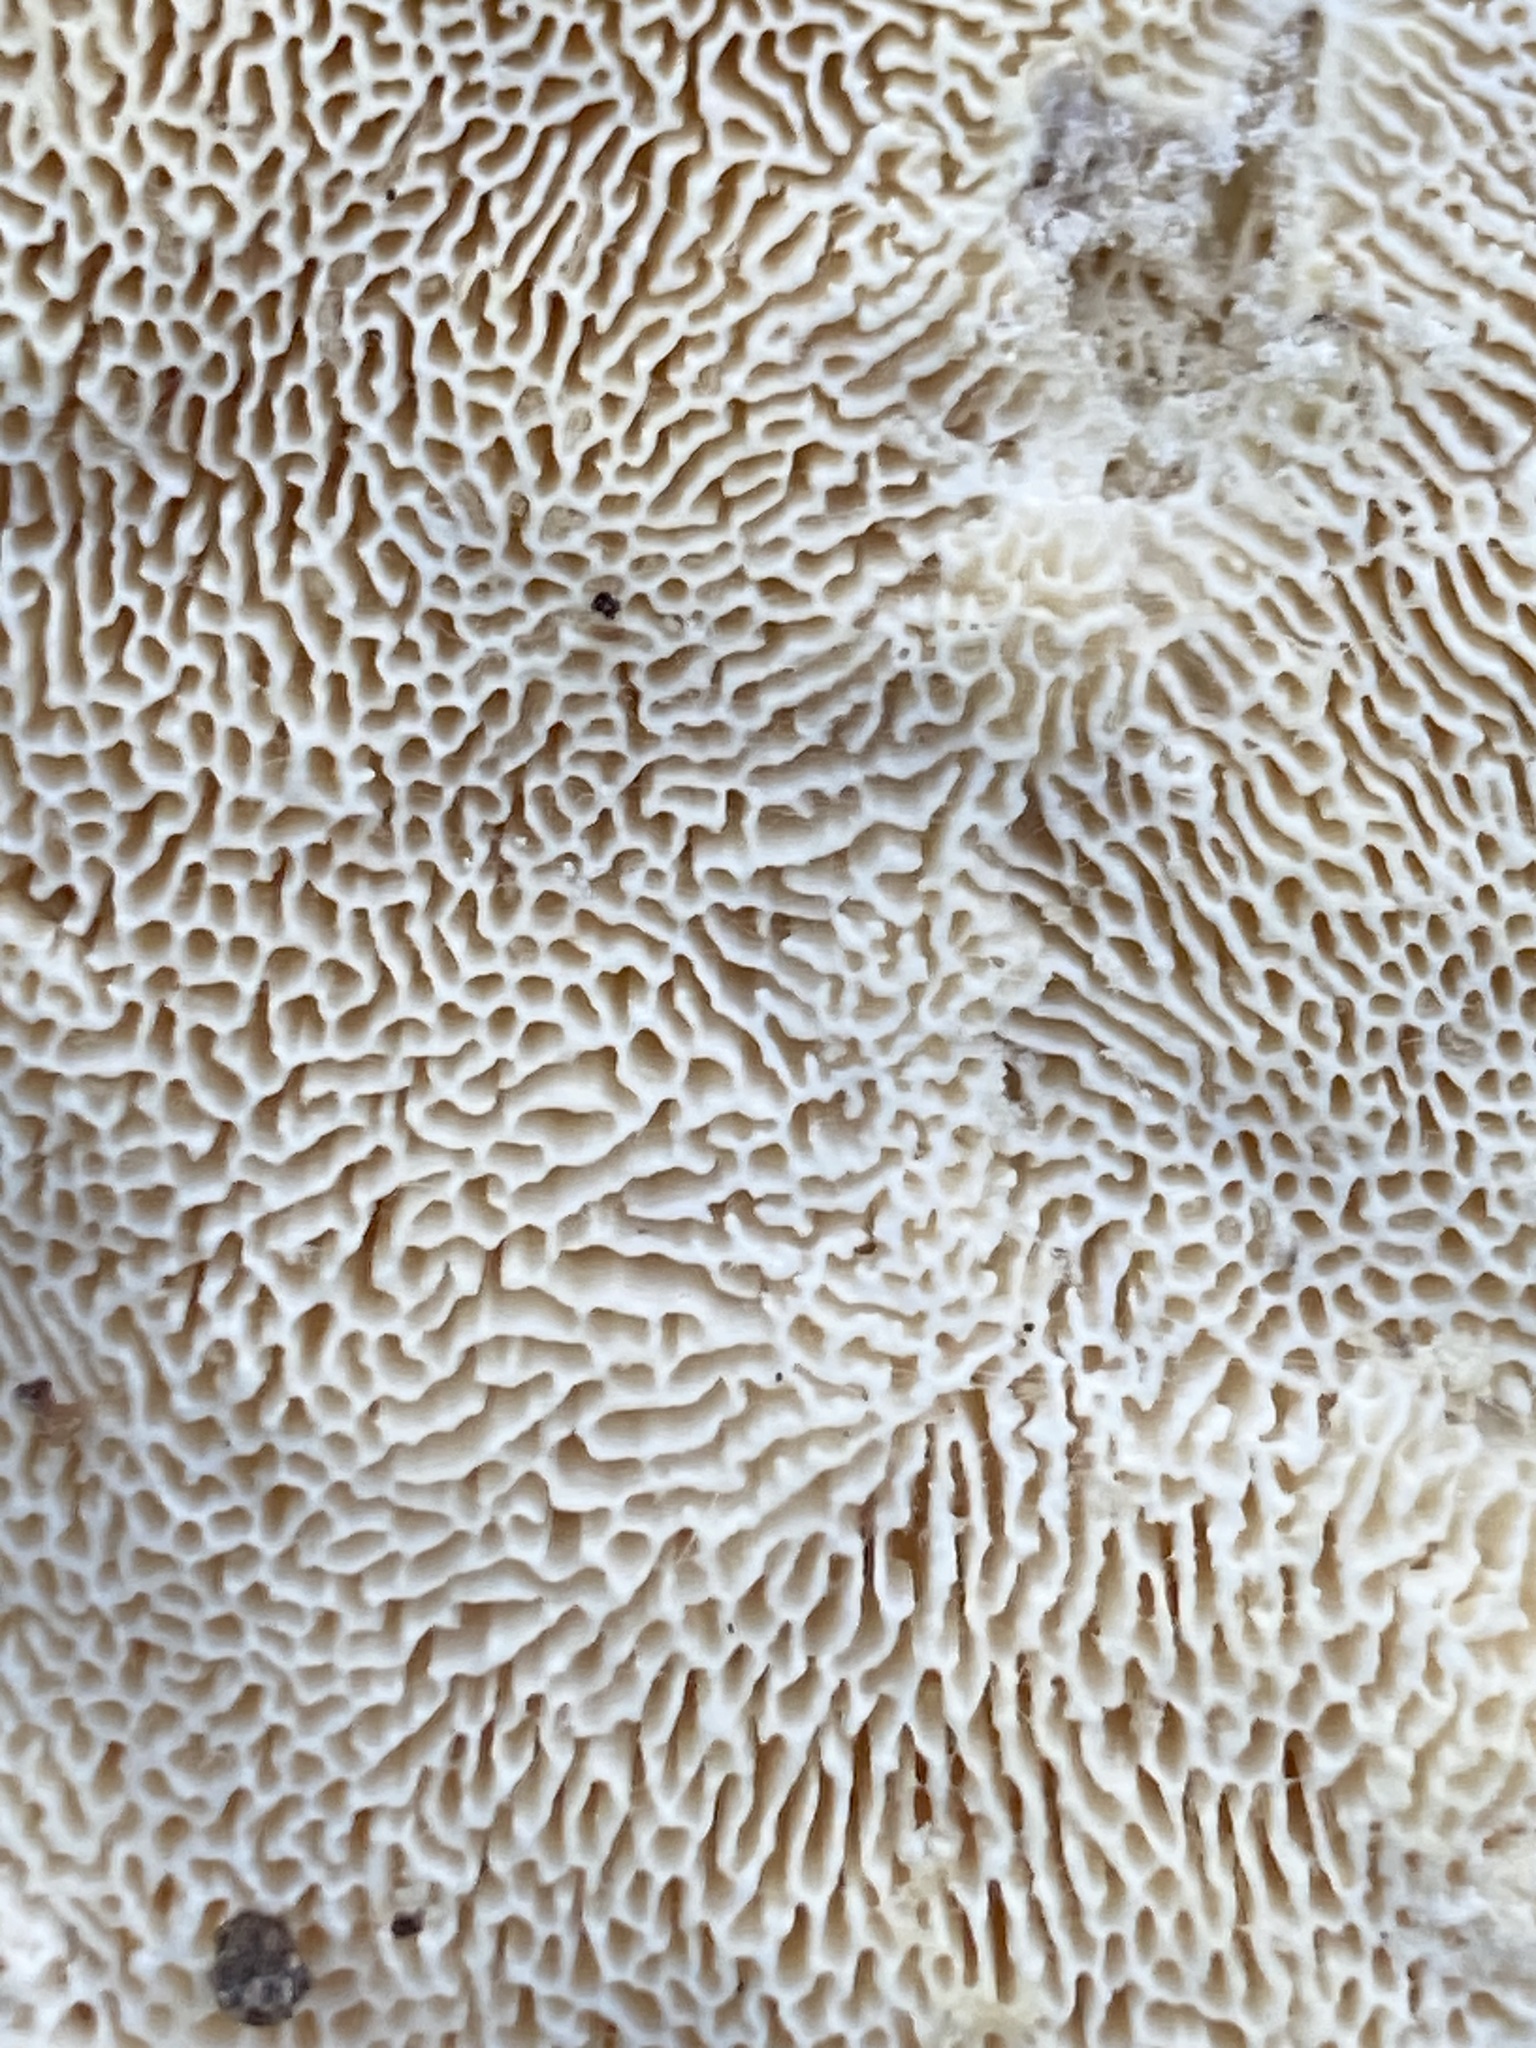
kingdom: Fungi
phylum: Basidiomycota
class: Agaricomycetes
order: Polyporales
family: Polyporaceae
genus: Trametes
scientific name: Trametes gibbosa
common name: Lumpy bracket
